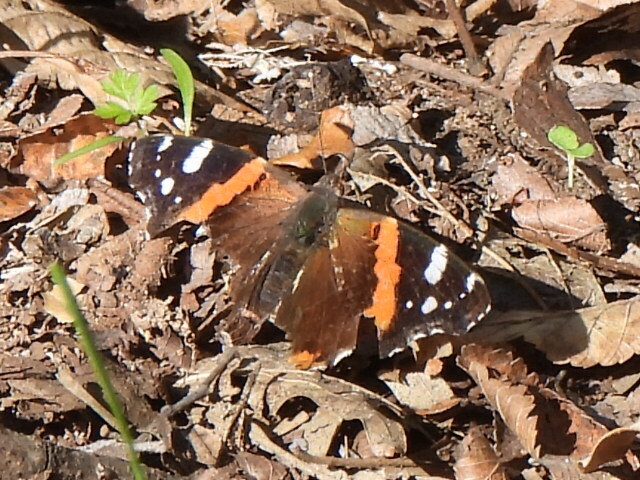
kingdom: Animalia
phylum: Arthropoda
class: Insecta
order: Lepidoptera
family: Nymphalidae
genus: Vanessa
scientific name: Vanessa atalanta
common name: Red admiral
